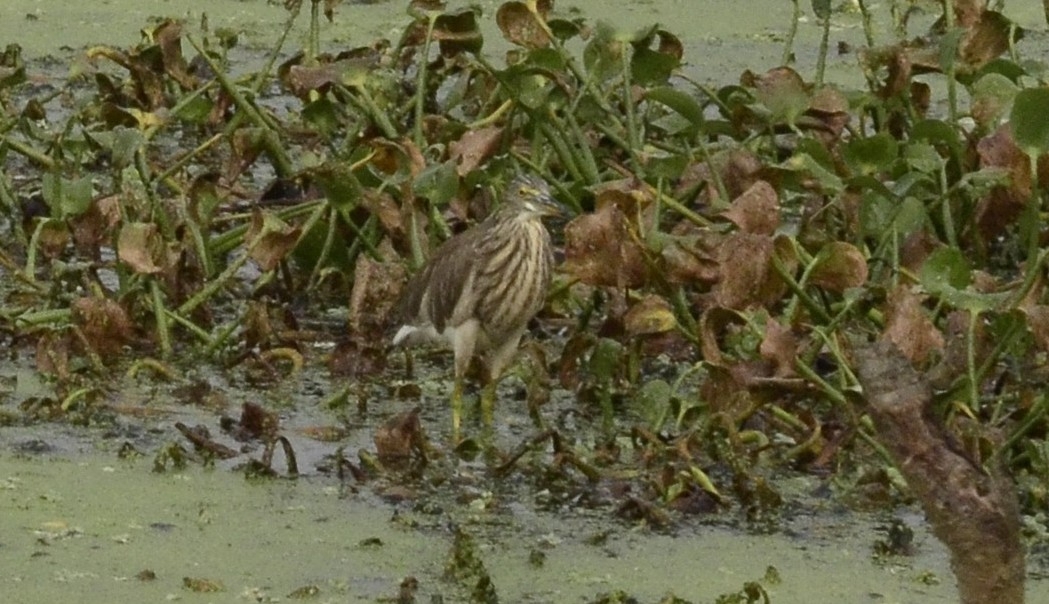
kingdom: Animalia
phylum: Chordata
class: Aves
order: Pelecaniformes
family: Ardeidae
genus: Ardeola
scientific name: Ardeola grayii
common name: Indian pond heron
